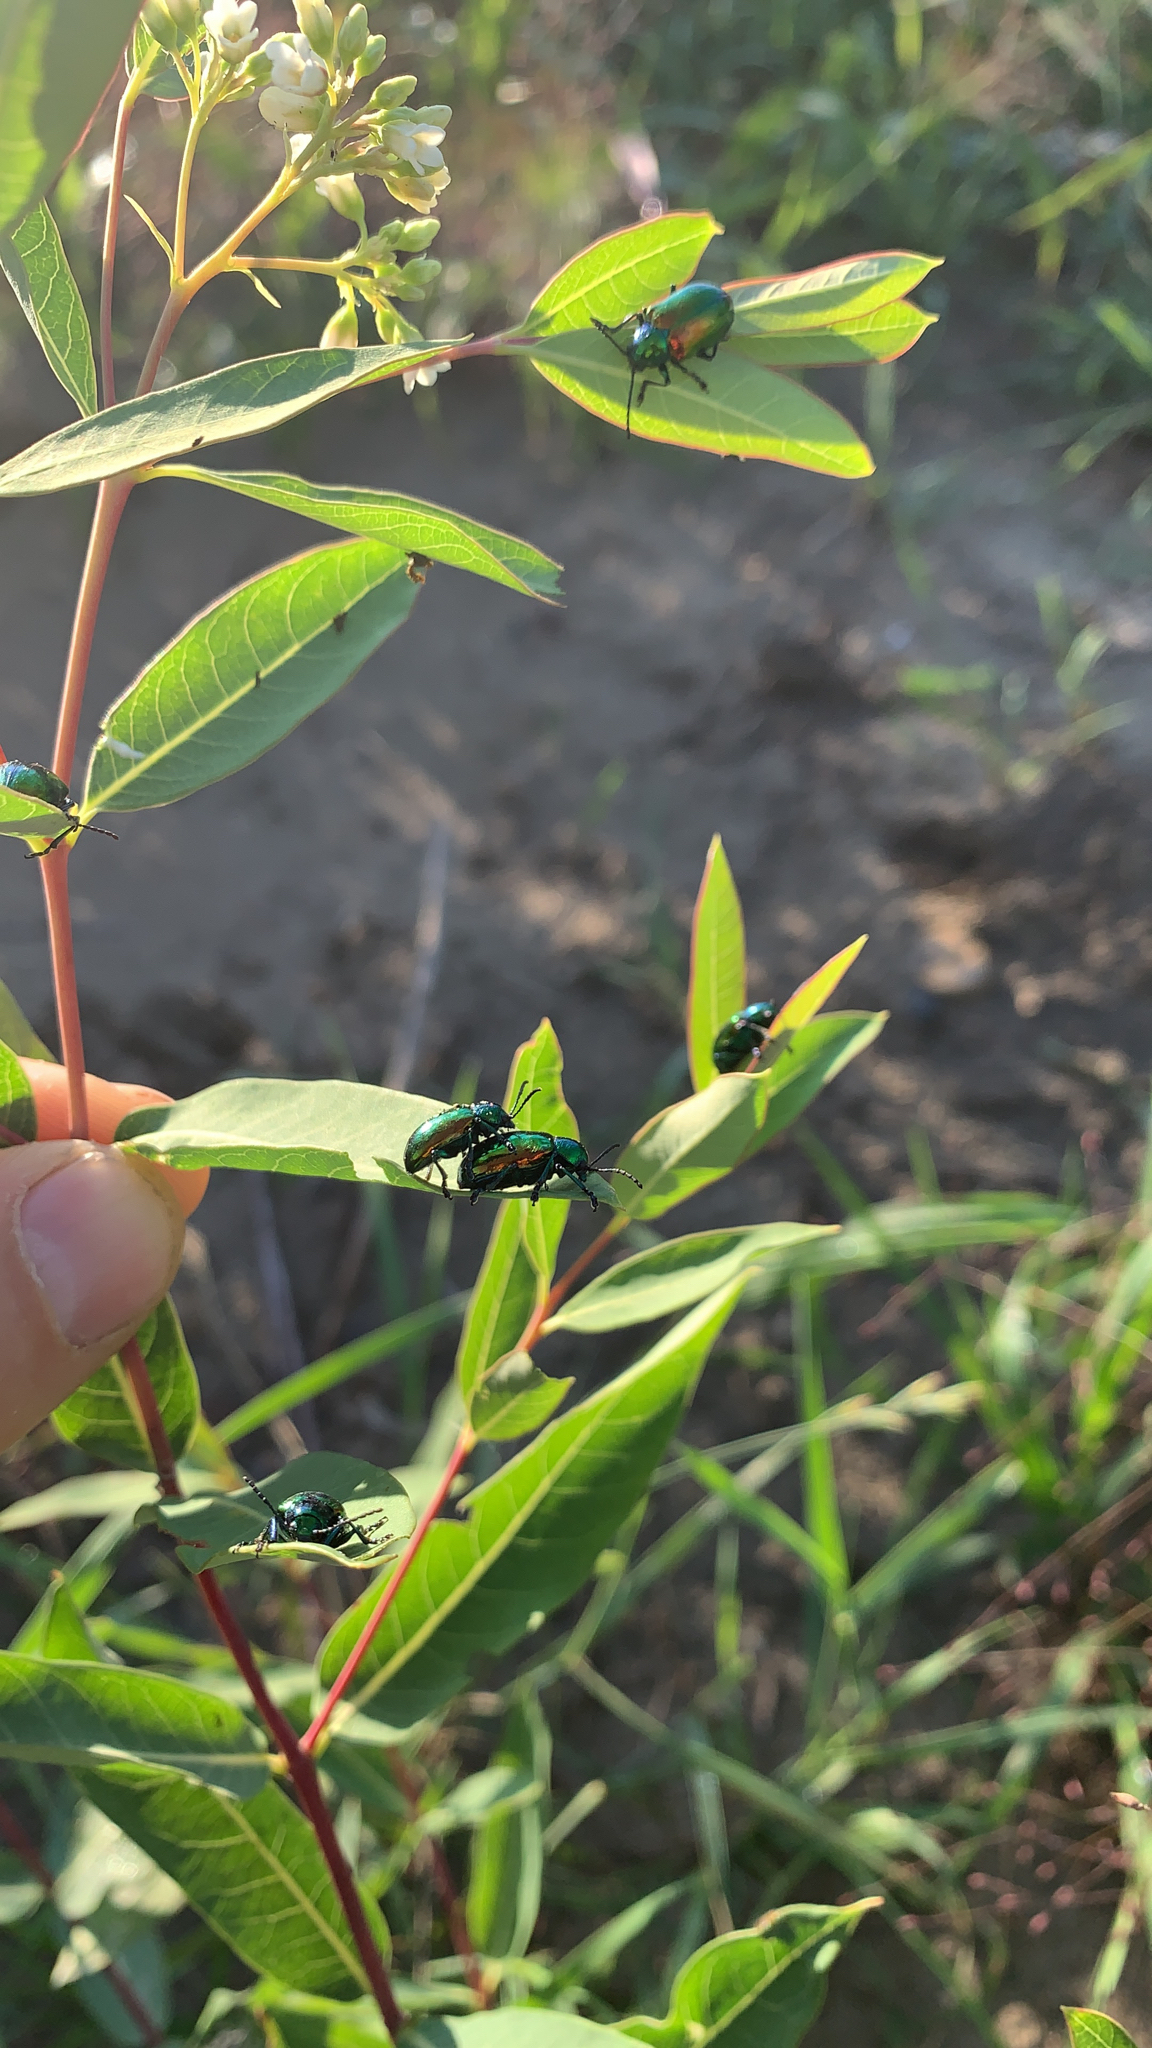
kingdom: Animalia
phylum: Arthropoda
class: Insecta
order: Coleoptera
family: Chrysomelidae
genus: Chrysochus
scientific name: Chrysochus auratus
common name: Dogbane leaf beetle
